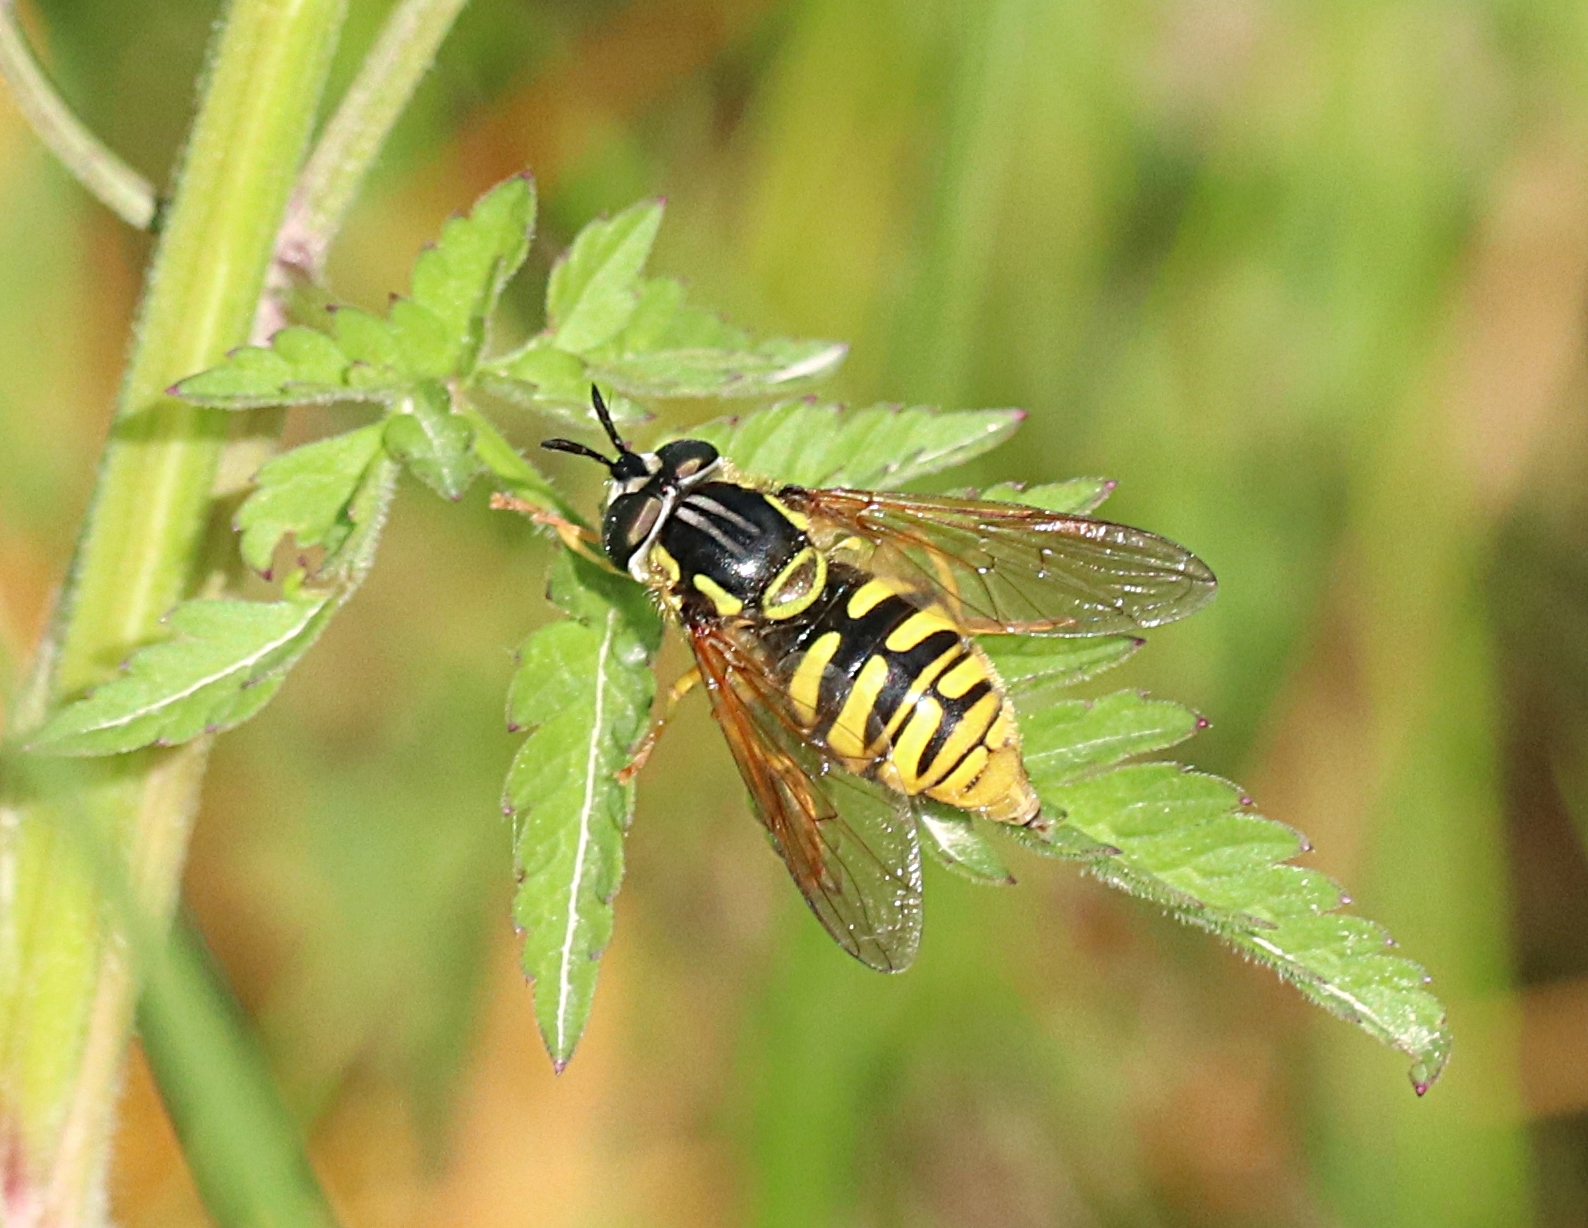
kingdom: Animalia
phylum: Arthropoda
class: Insecta
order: Diptera
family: Syrphidae
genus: Chrysotoxum
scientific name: Chrysotoxum cautum
